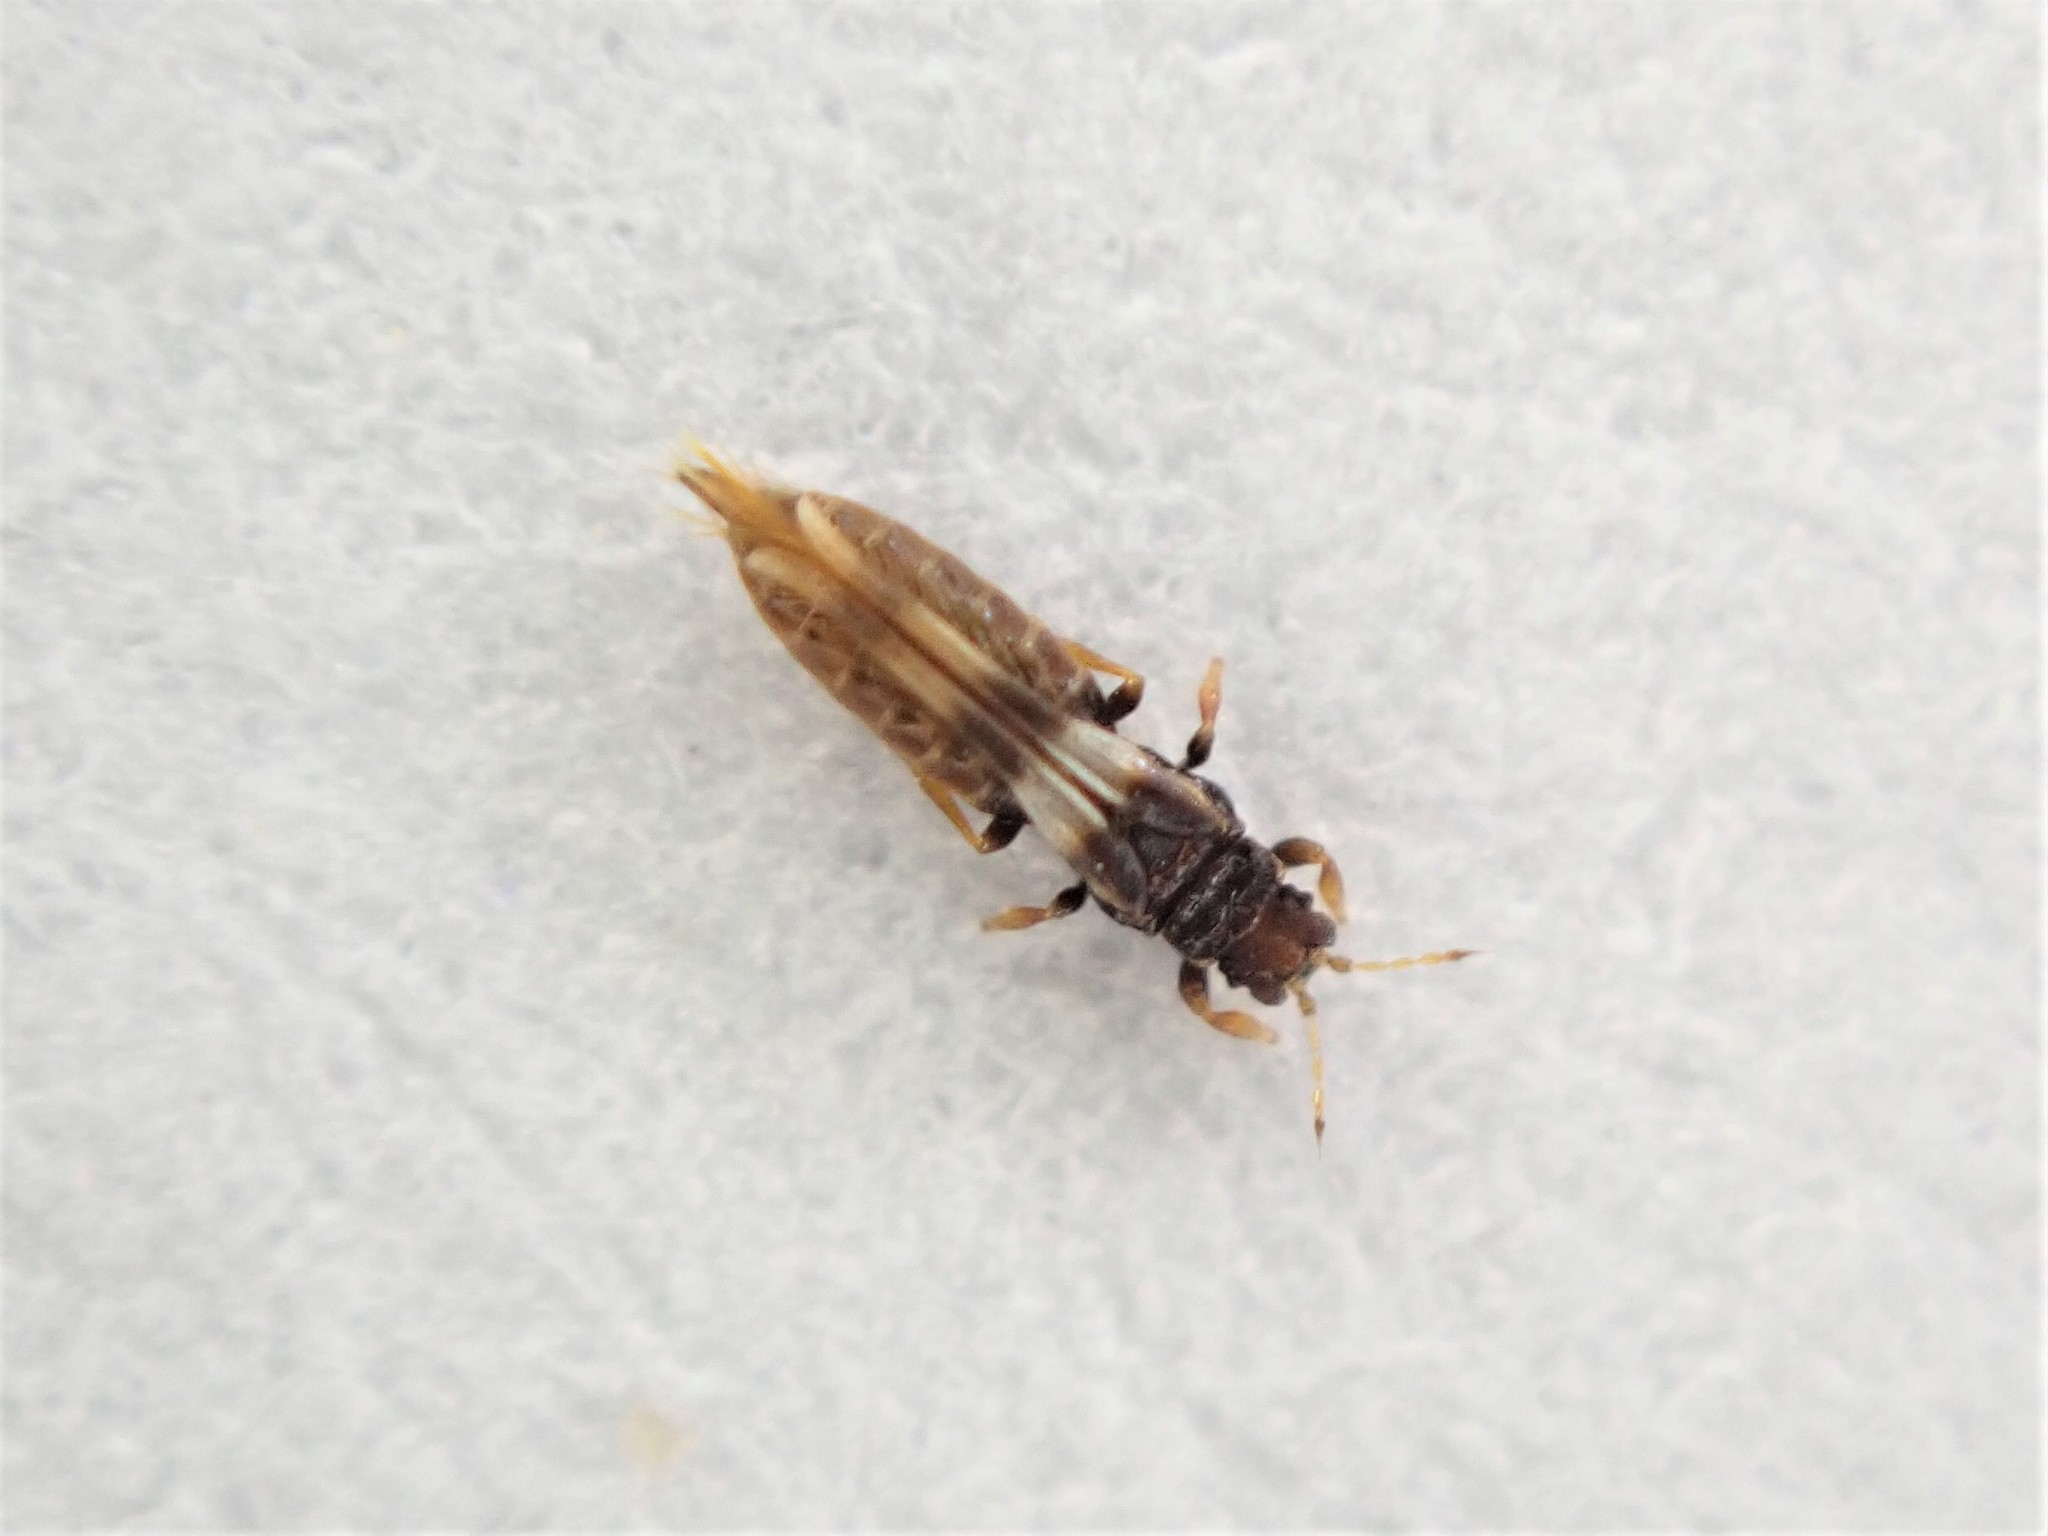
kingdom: Animalia
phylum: Arthropoda
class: Insecta
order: Thysanoptera
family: Thripidae
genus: Sigmothrips
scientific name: Sigmothrips aotearoana
